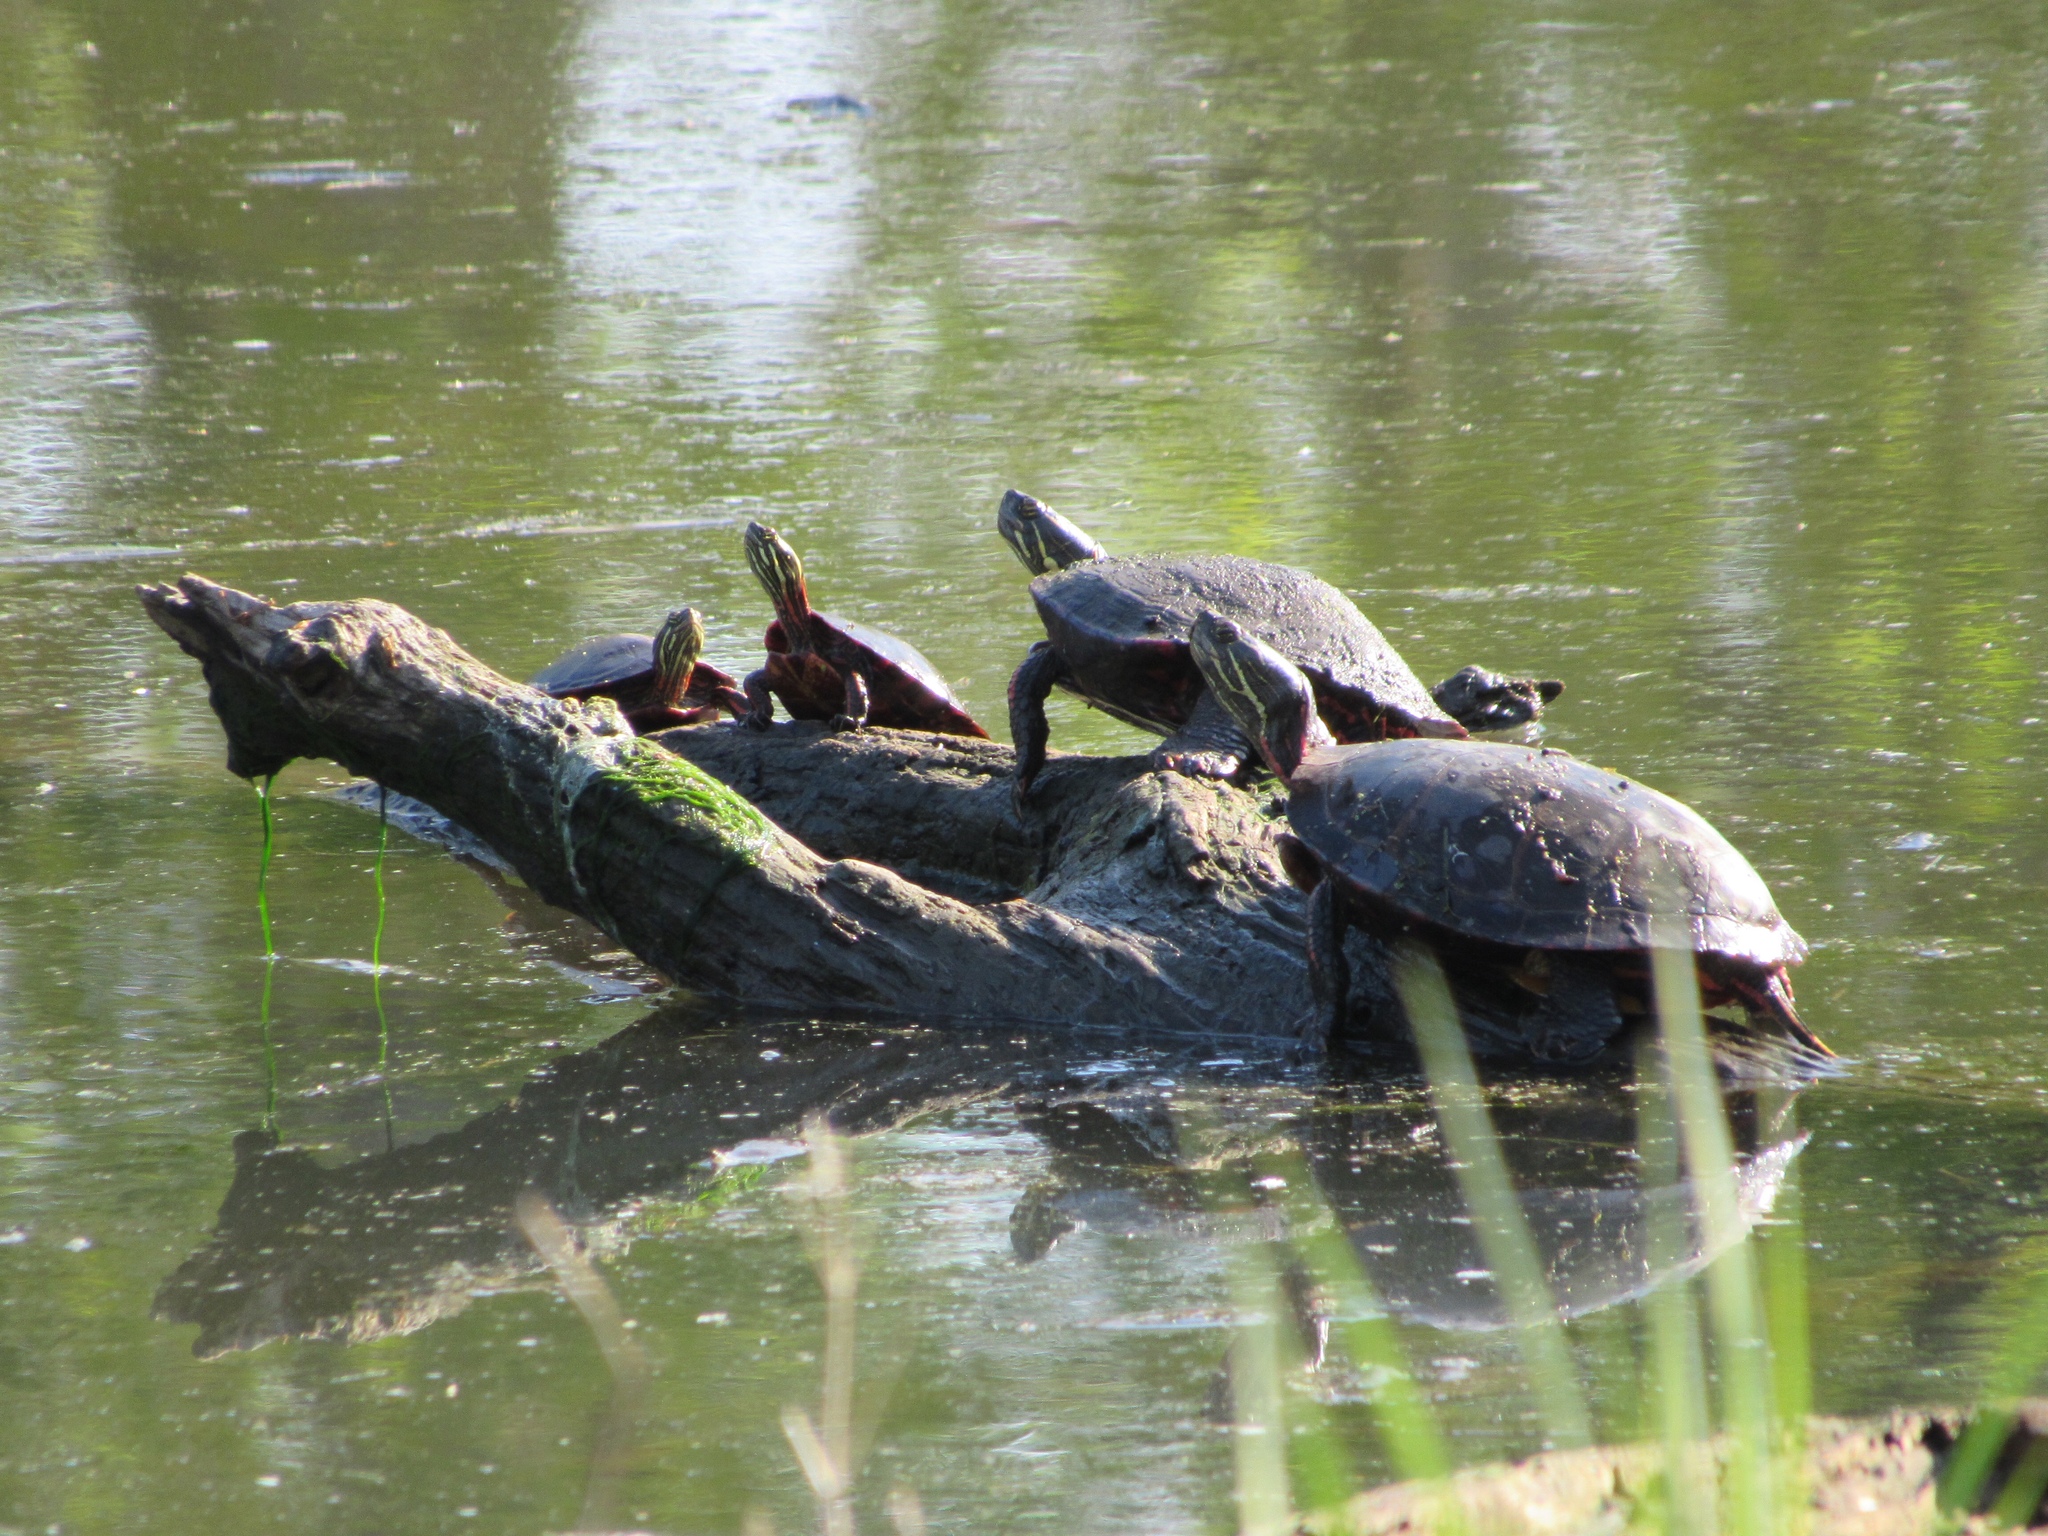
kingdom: Animalia
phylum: Chordata
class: Testudines
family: Emydidae
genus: Chrysemys
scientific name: Chrysemys picta
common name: Painted turtle
